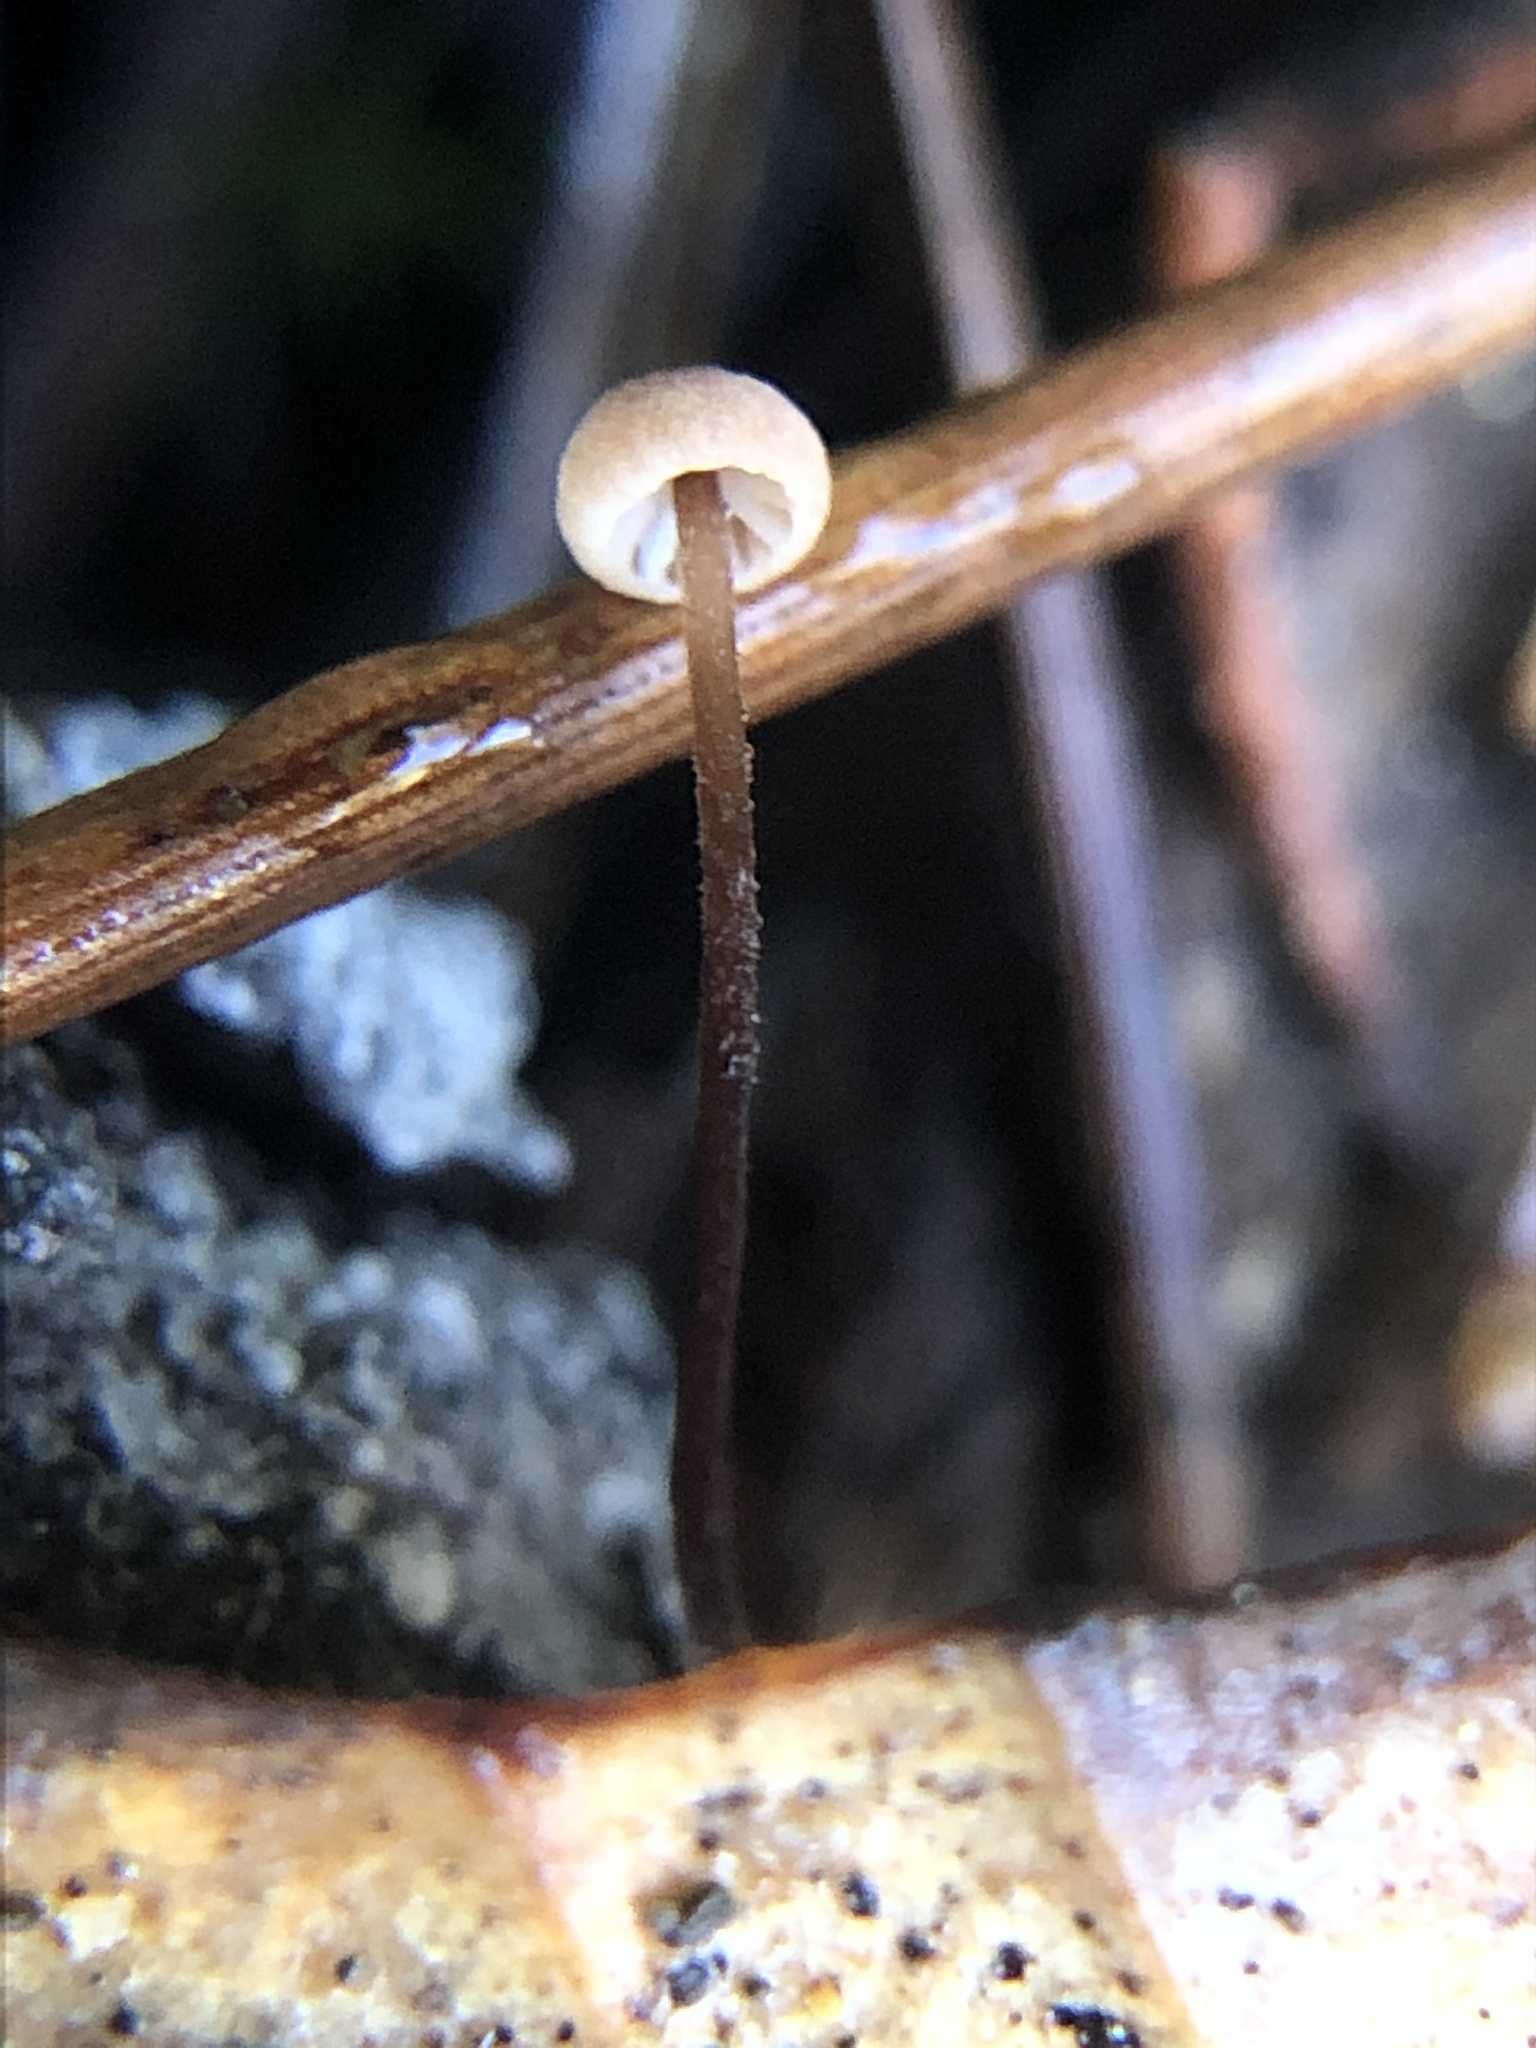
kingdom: Fungi
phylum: Basidiomycota
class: Agaricomycetes
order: Agaricales
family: Omphalotaceae
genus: Collybiopsis
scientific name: Collybiopsis quercophila
